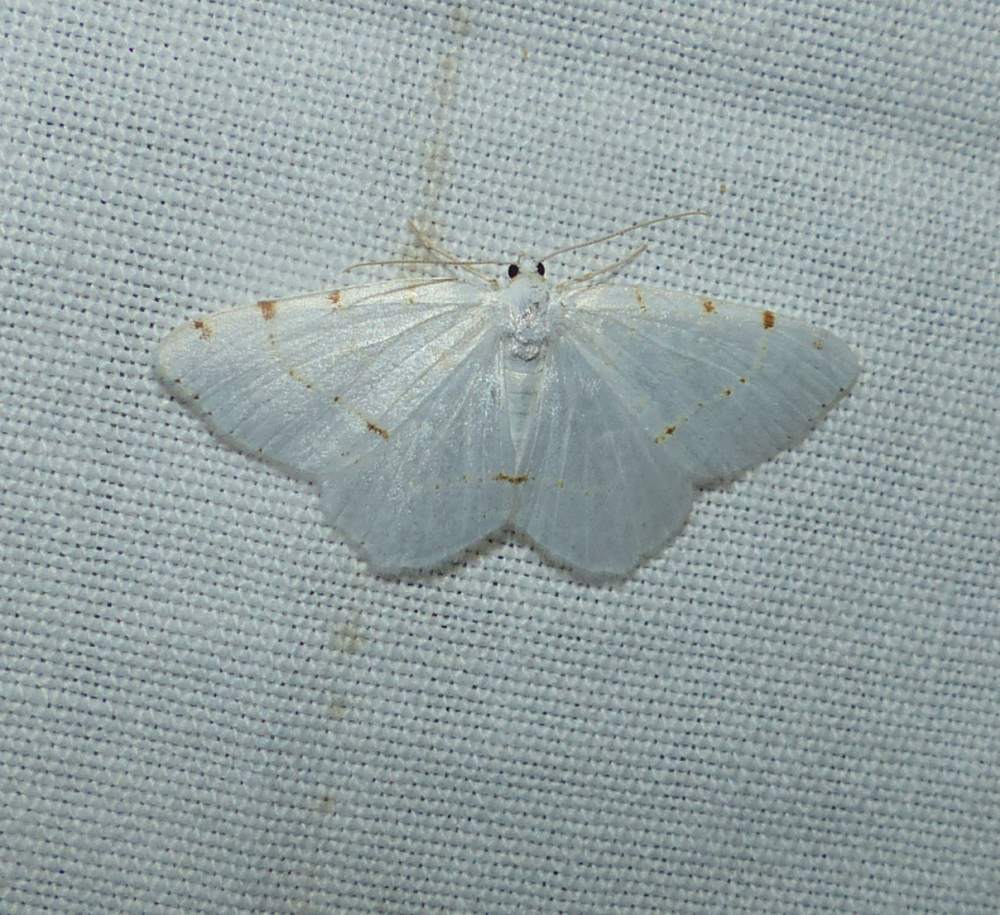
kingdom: Animalia
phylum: Arthropoda
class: Insecta
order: Lepidoptera
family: Geometridae
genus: Macaria
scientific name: Macaria pustularia
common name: Lesser maple spanworm moth
